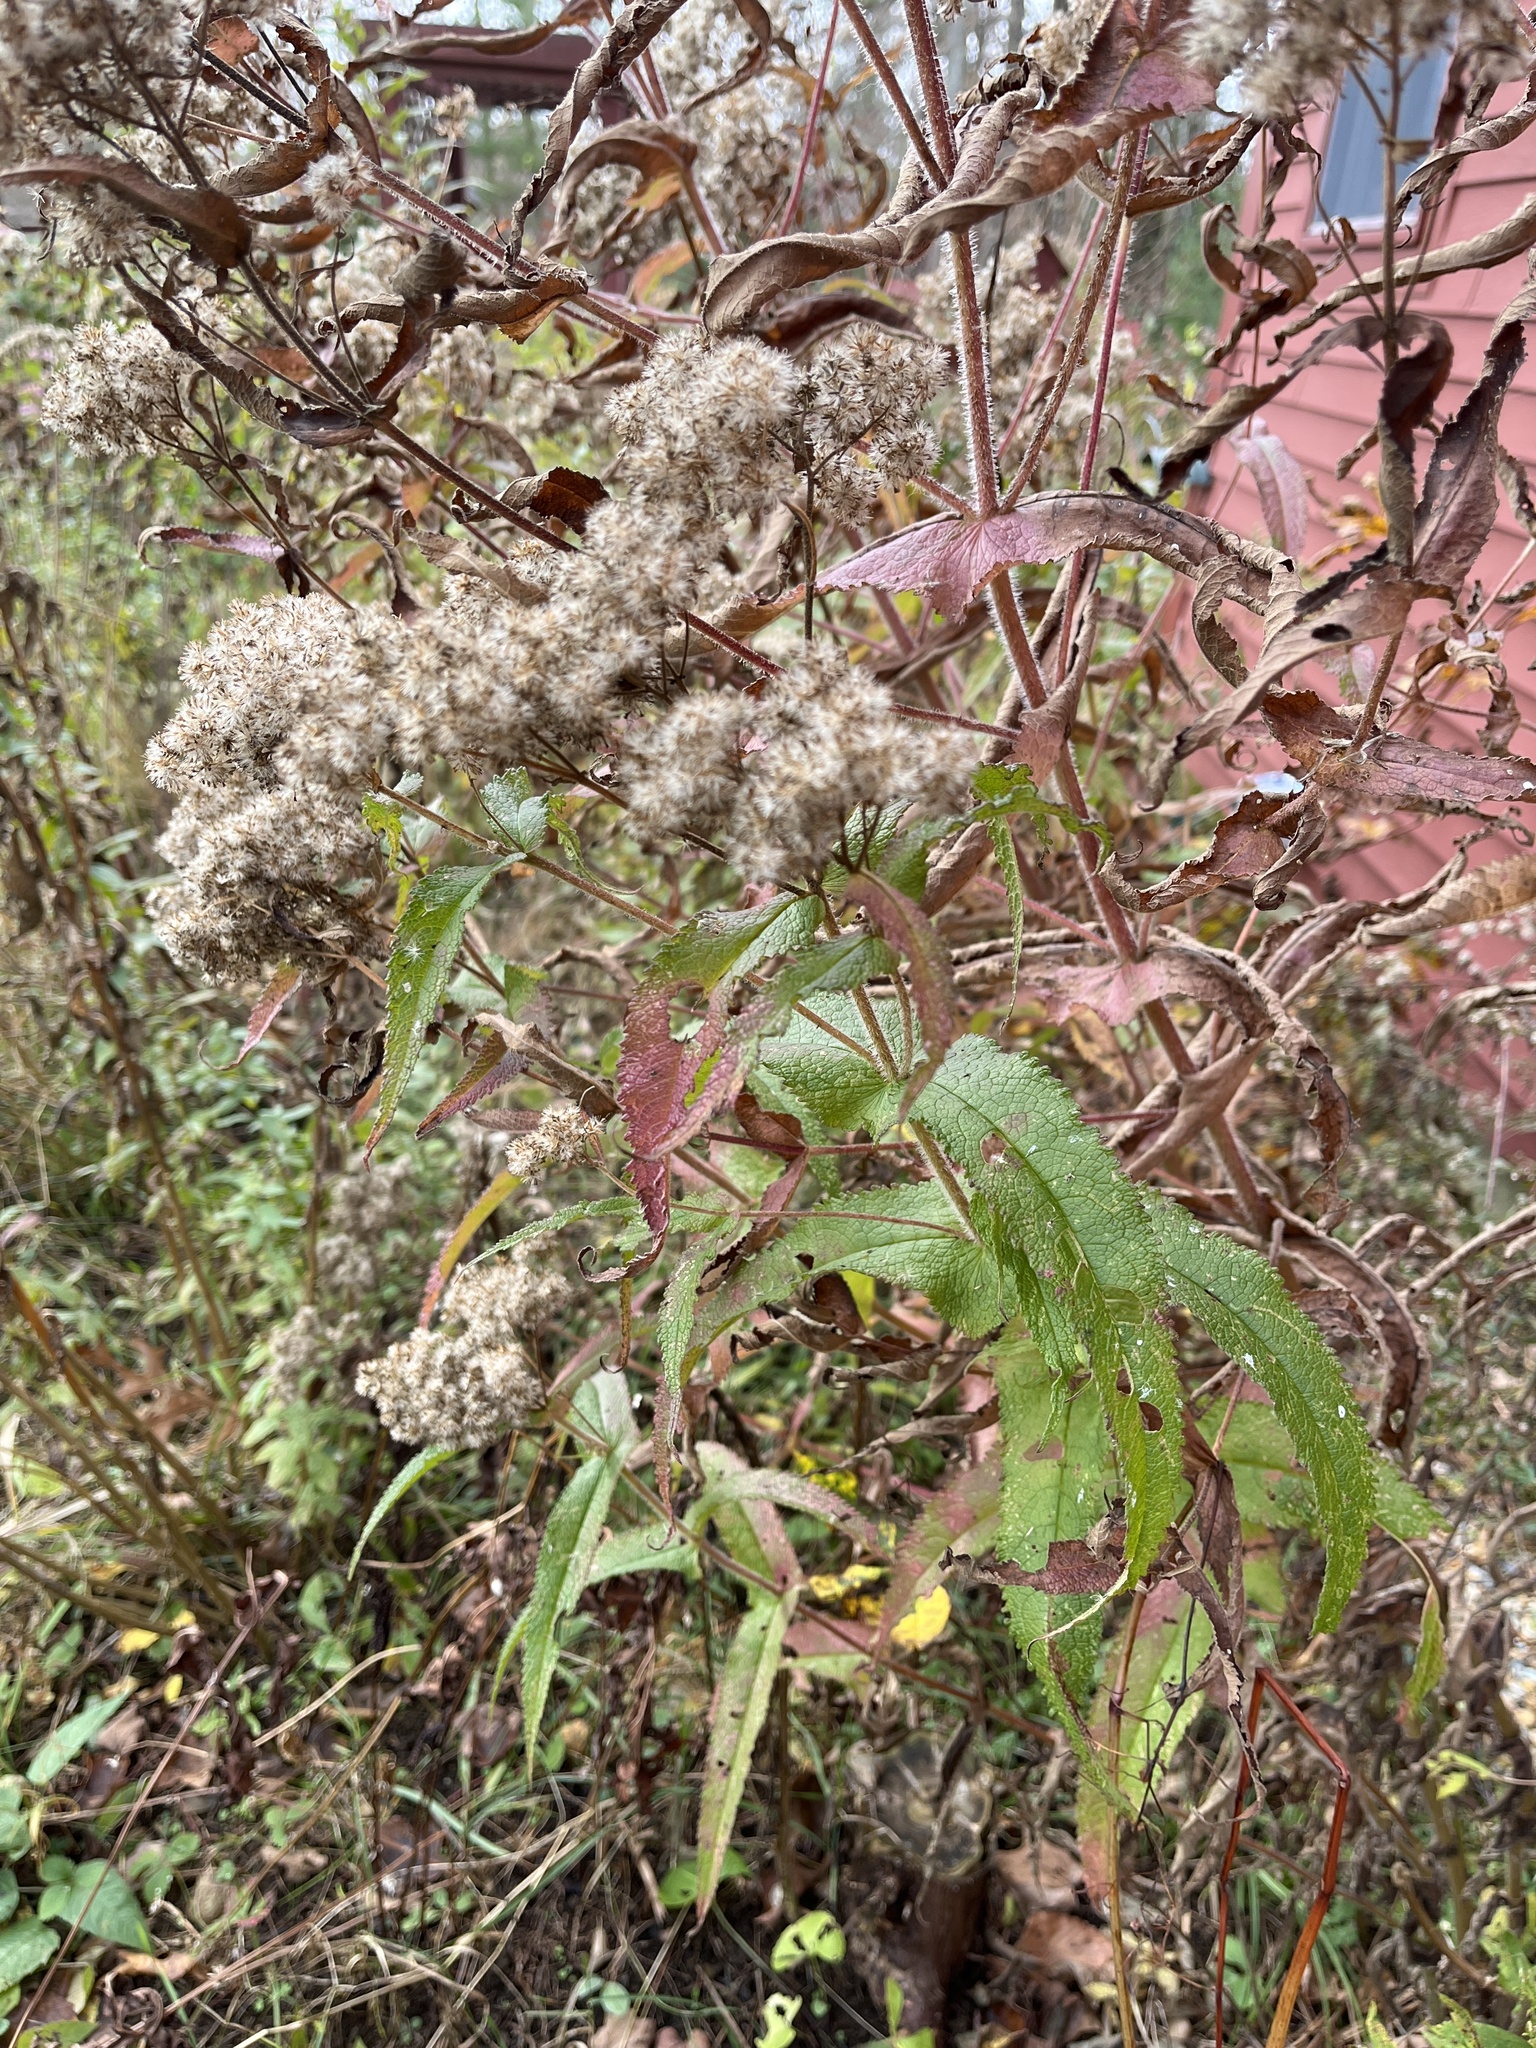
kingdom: Plantae
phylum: Tracheophyta
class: Magnoliopsida
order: Asterales
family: Asteraceae
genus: Eupatorium
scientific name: Eupatorium perfoliatum
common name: Boneset
